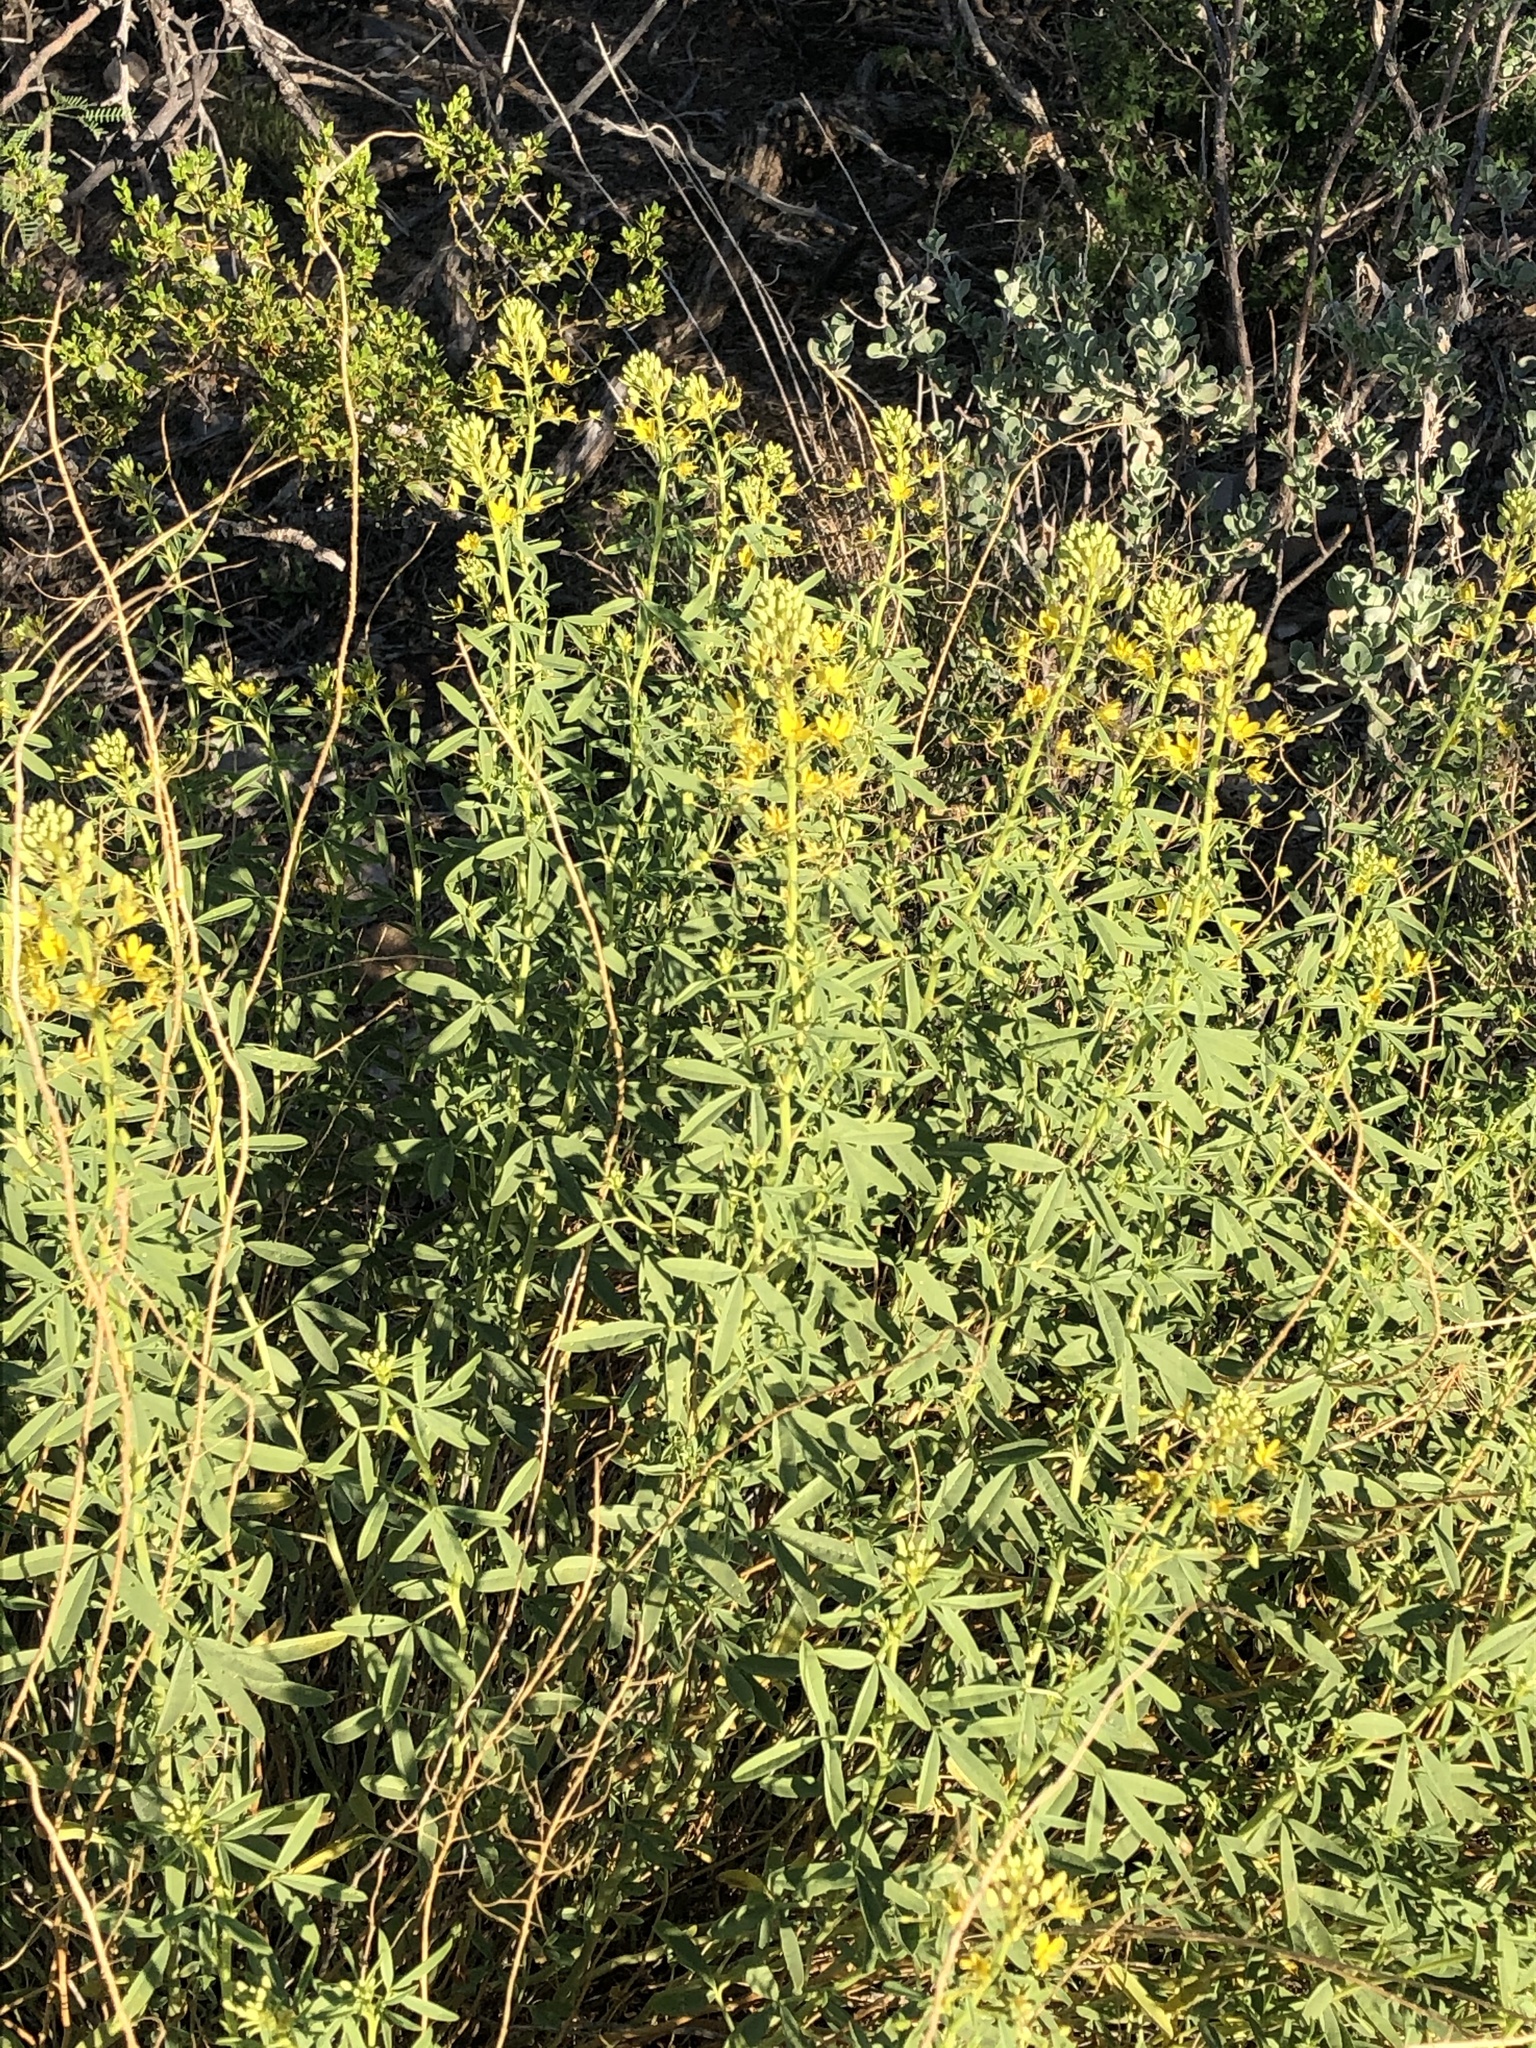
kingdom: Plantae
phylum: Tracheophyta
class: Magnoliopsida
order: Brassicales
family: Cleomaceae
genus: Cleomella
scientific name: Cleomella longipes
